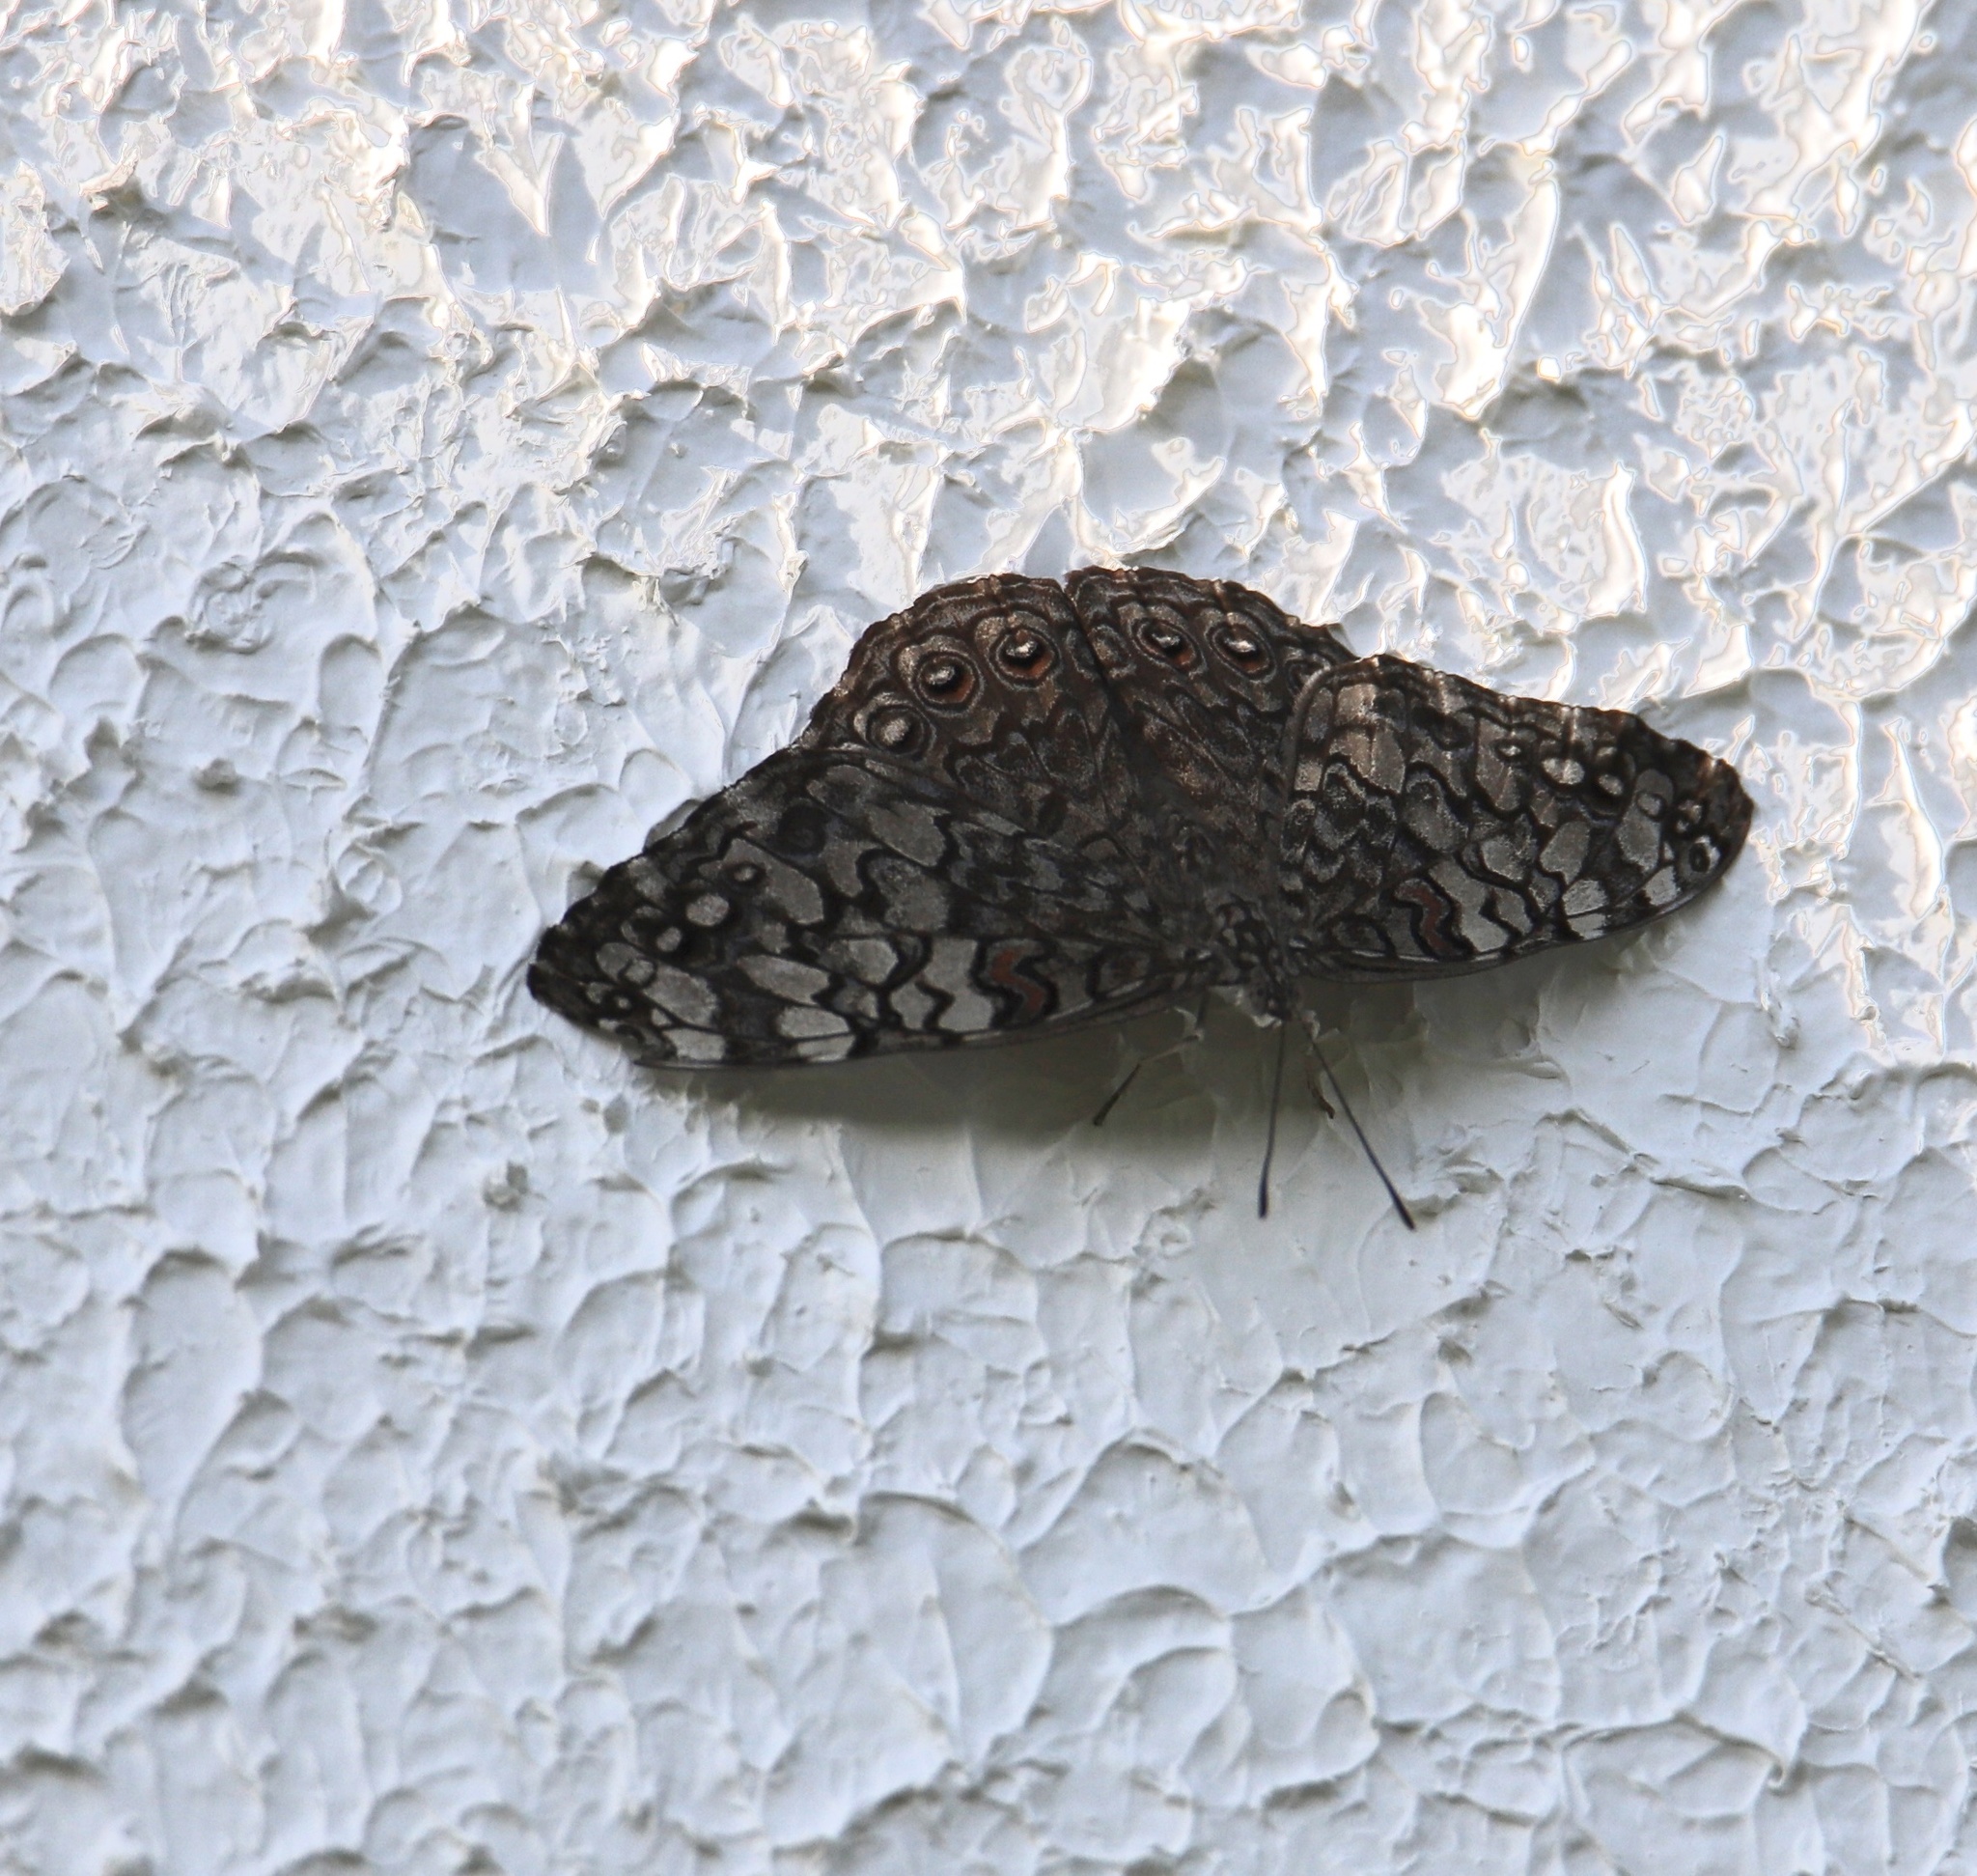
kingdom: Animalia
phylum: Arthropoda
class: Insecta
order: Lepidoptera
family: Nymphalidae
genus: Hamadryas
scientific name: Hamadryas februa
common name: Gray cracker
